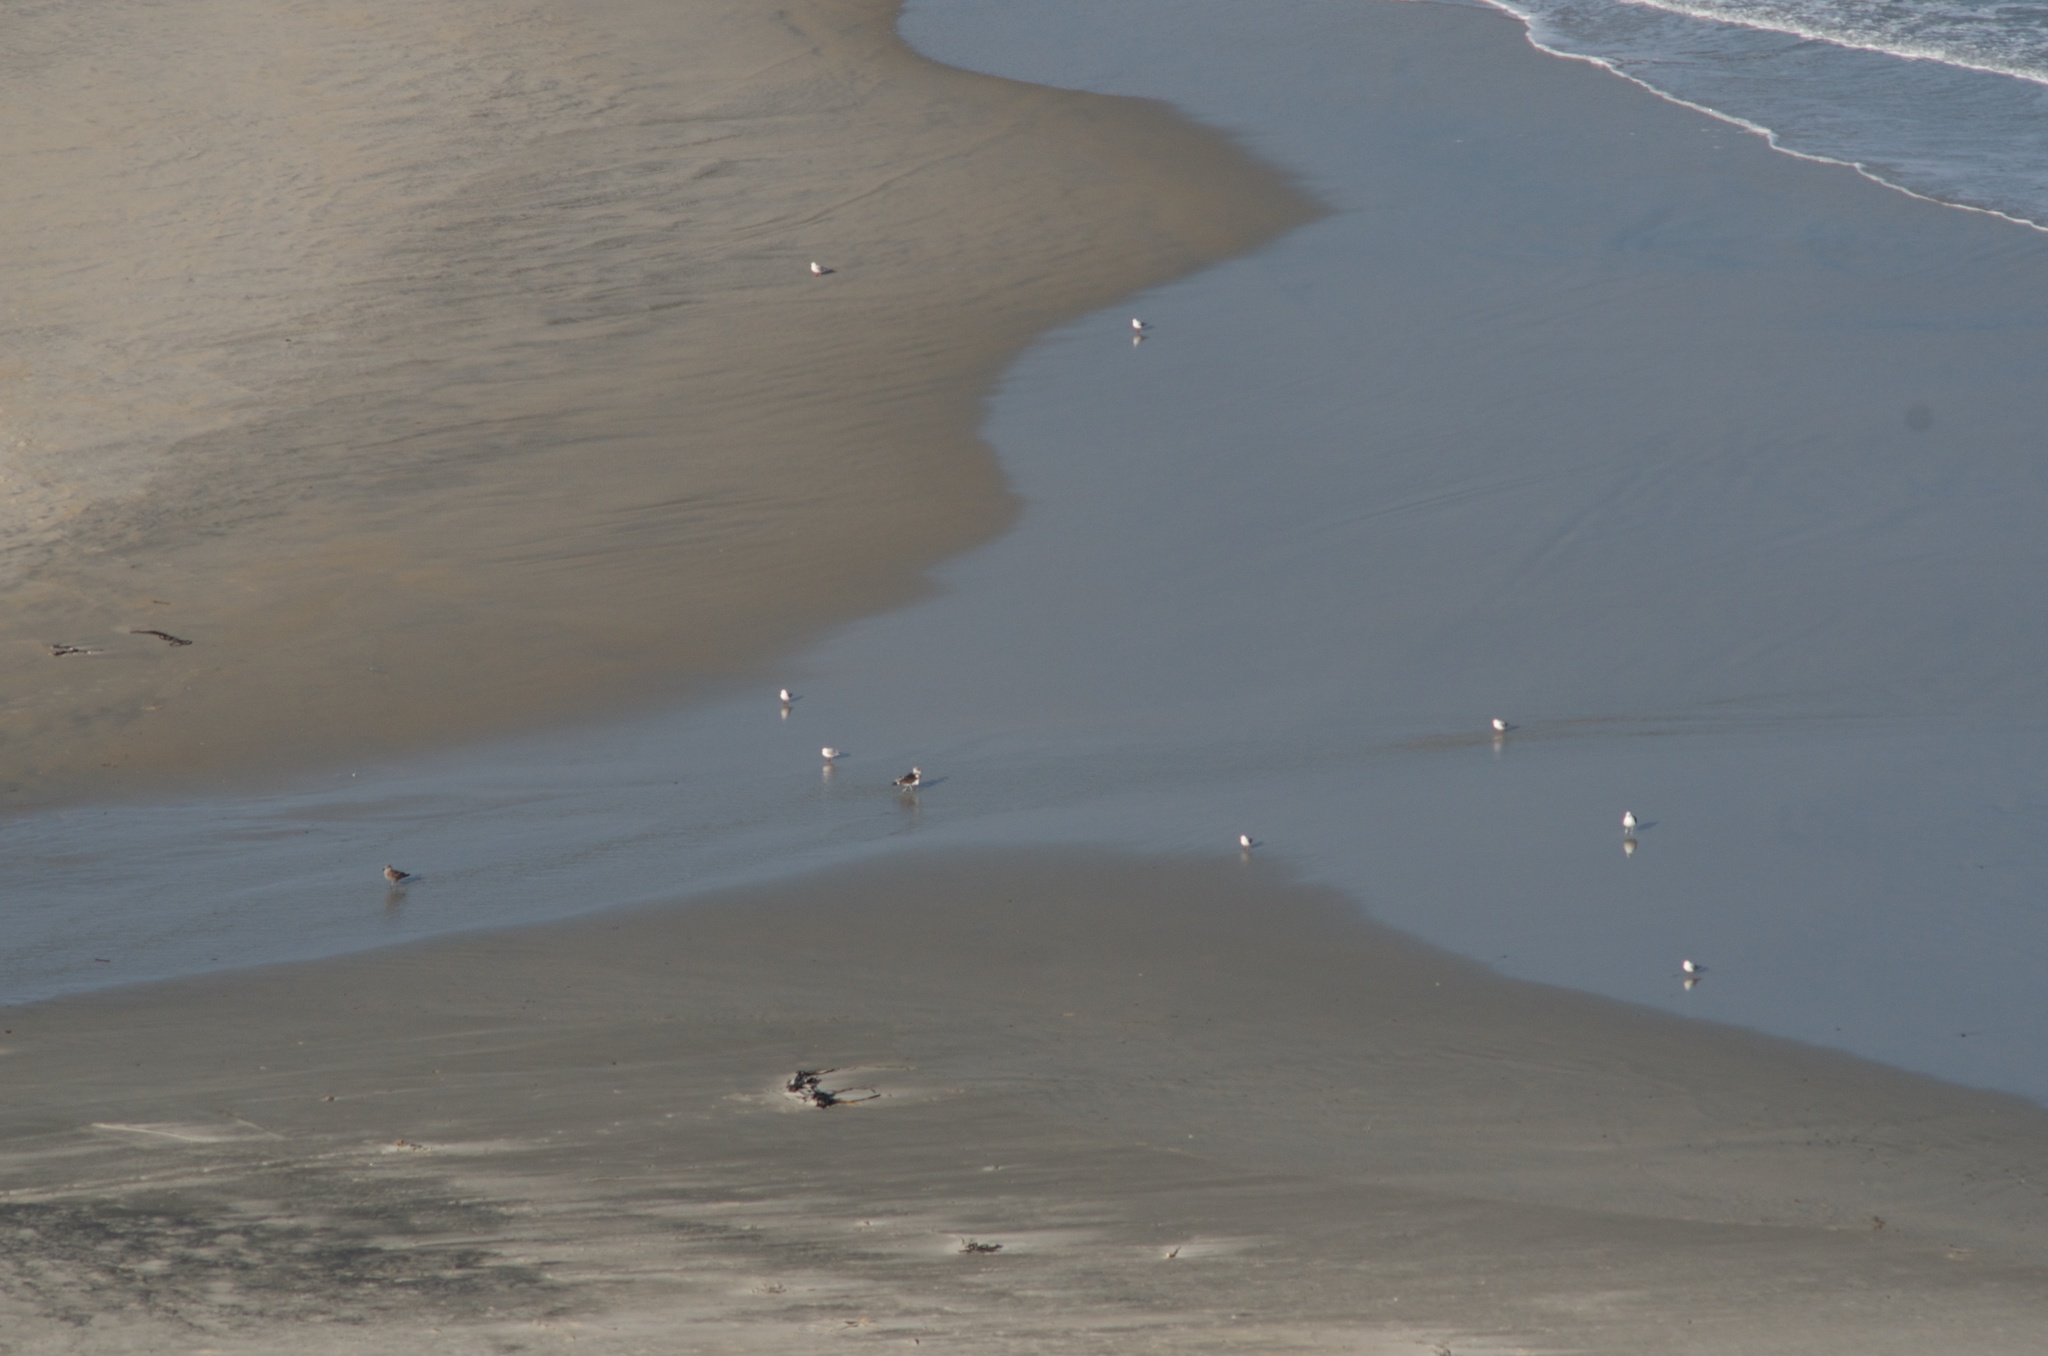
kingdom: Animalia
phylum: Chordata
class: Aves
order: Charadriiformes
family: Laridae
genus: Larus
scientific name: Larus dominicanus
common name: Kelp gull
